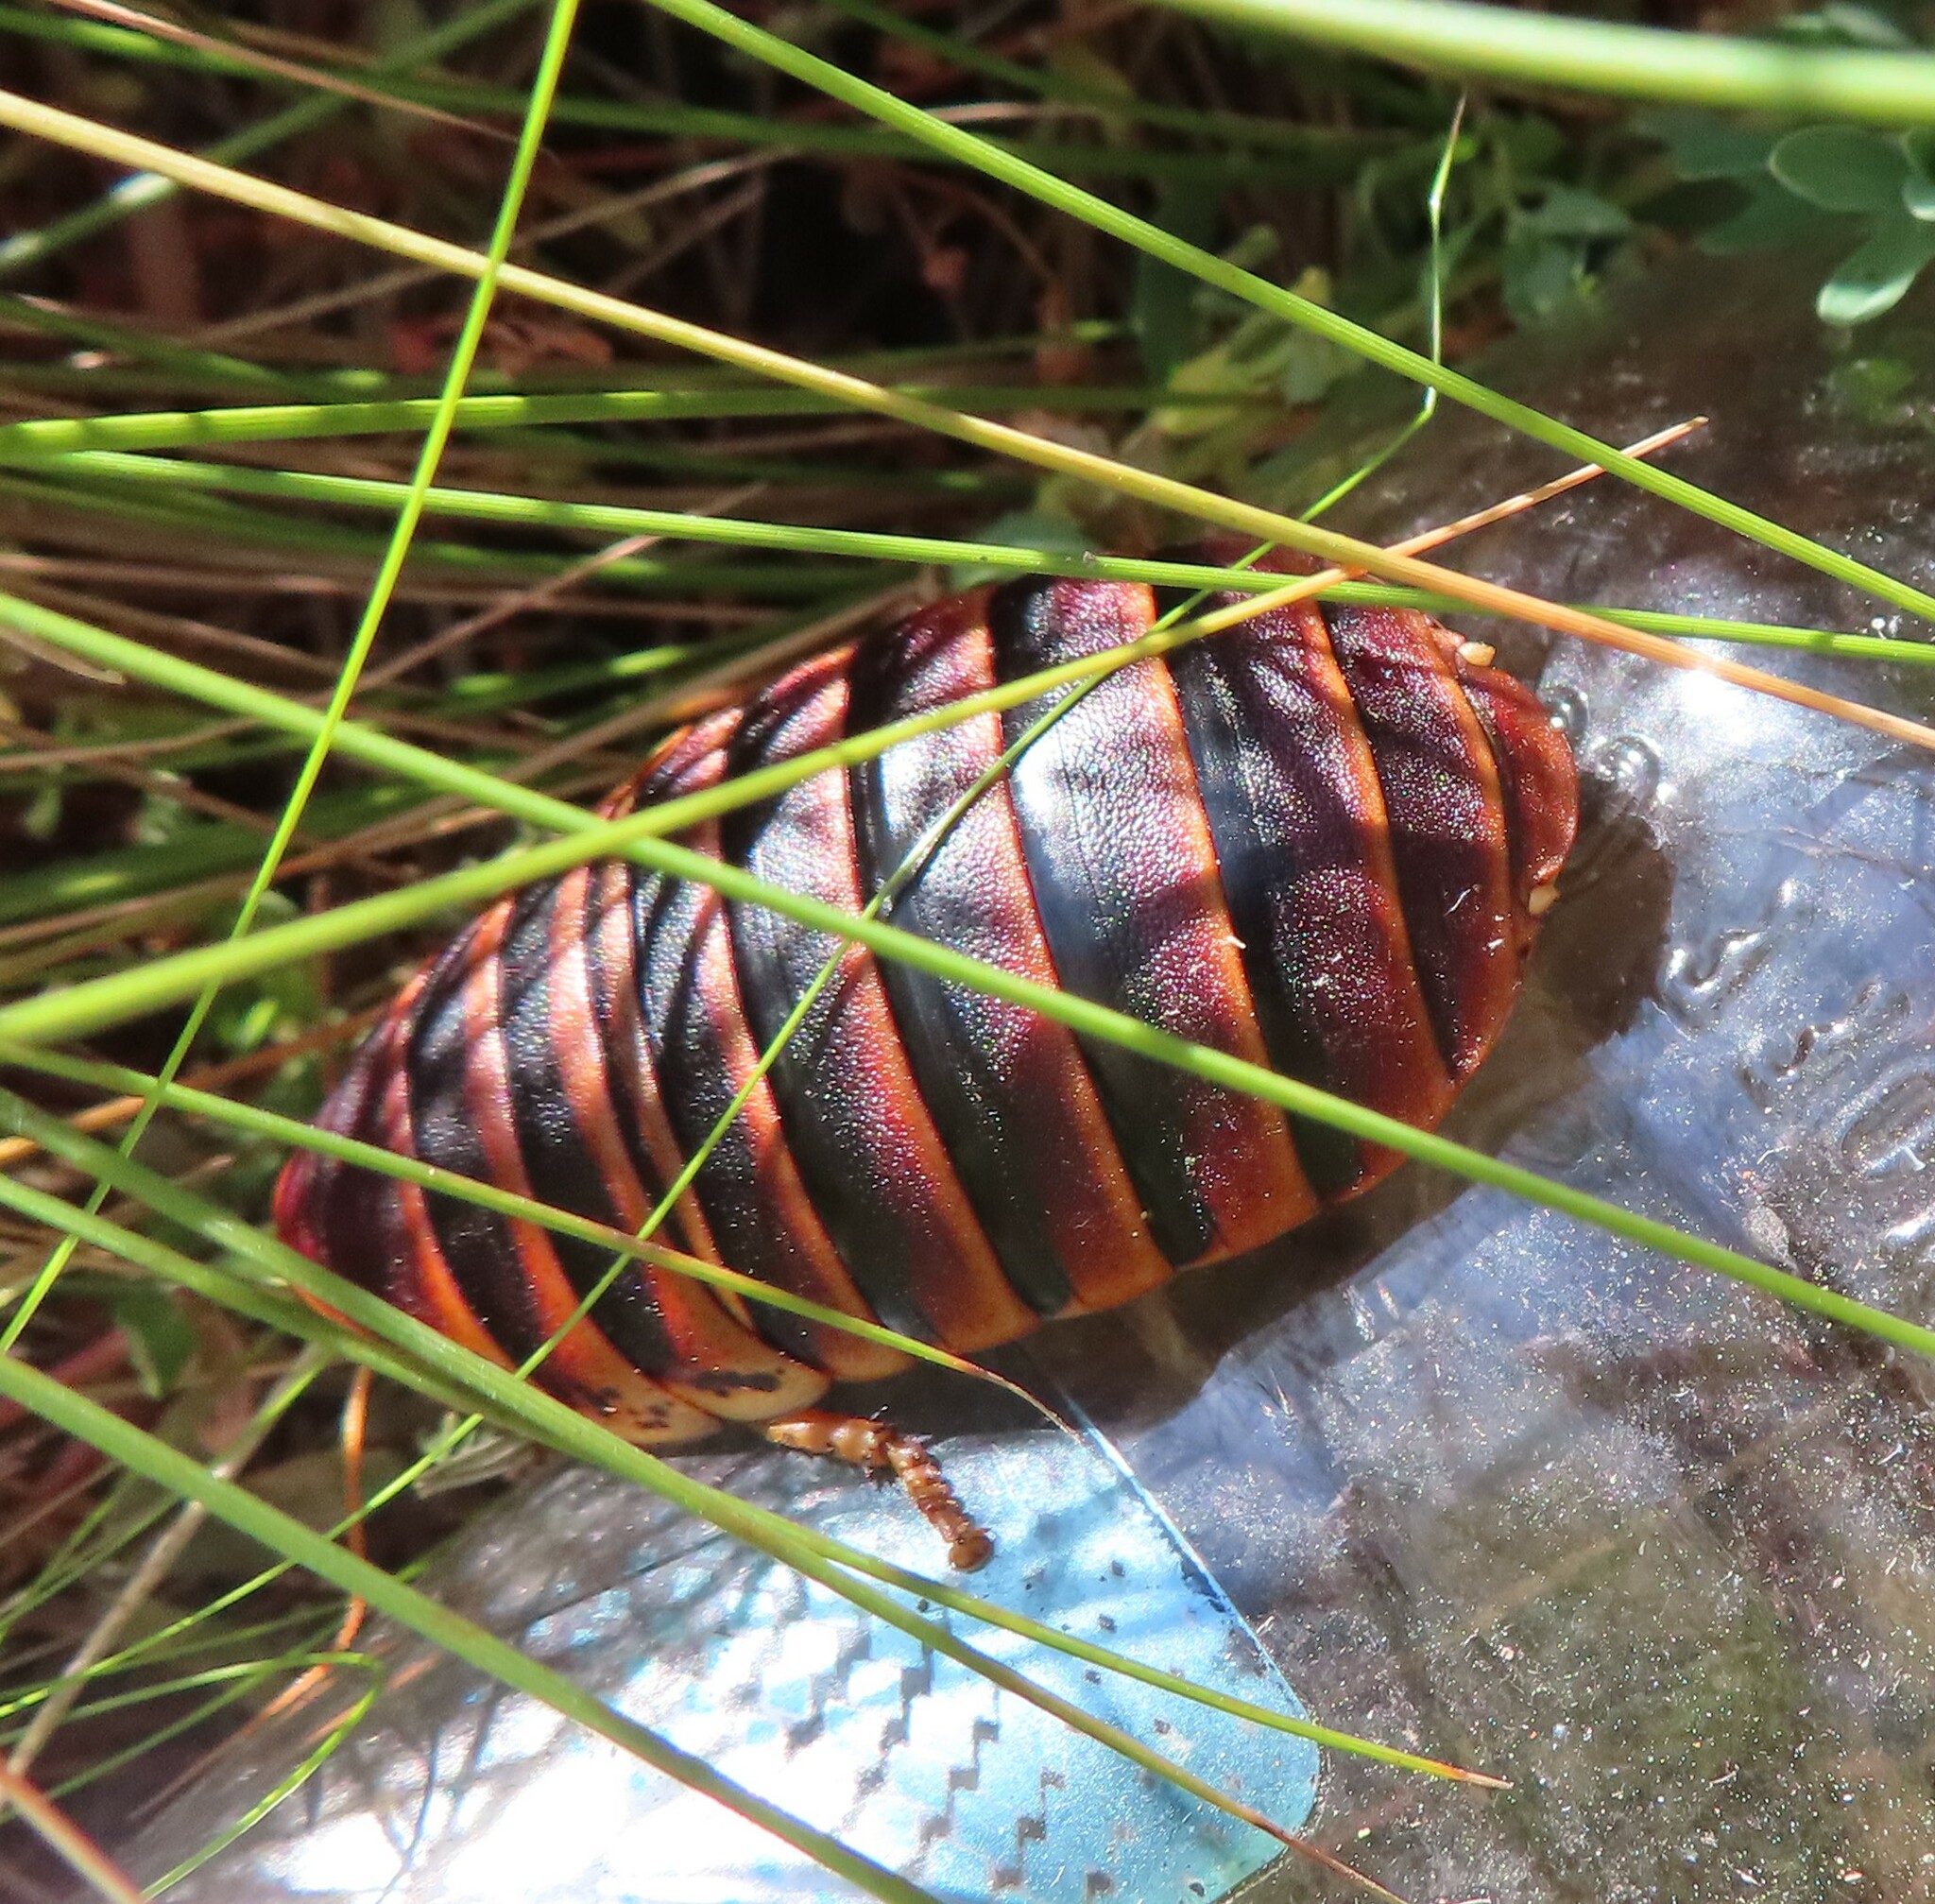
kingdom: Animalia
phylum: Arthropoda
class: Insecta
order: Blattodea
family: Blaberidae
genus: Aptera
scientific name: Aptera fusca
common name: Cape mountain cockroach
